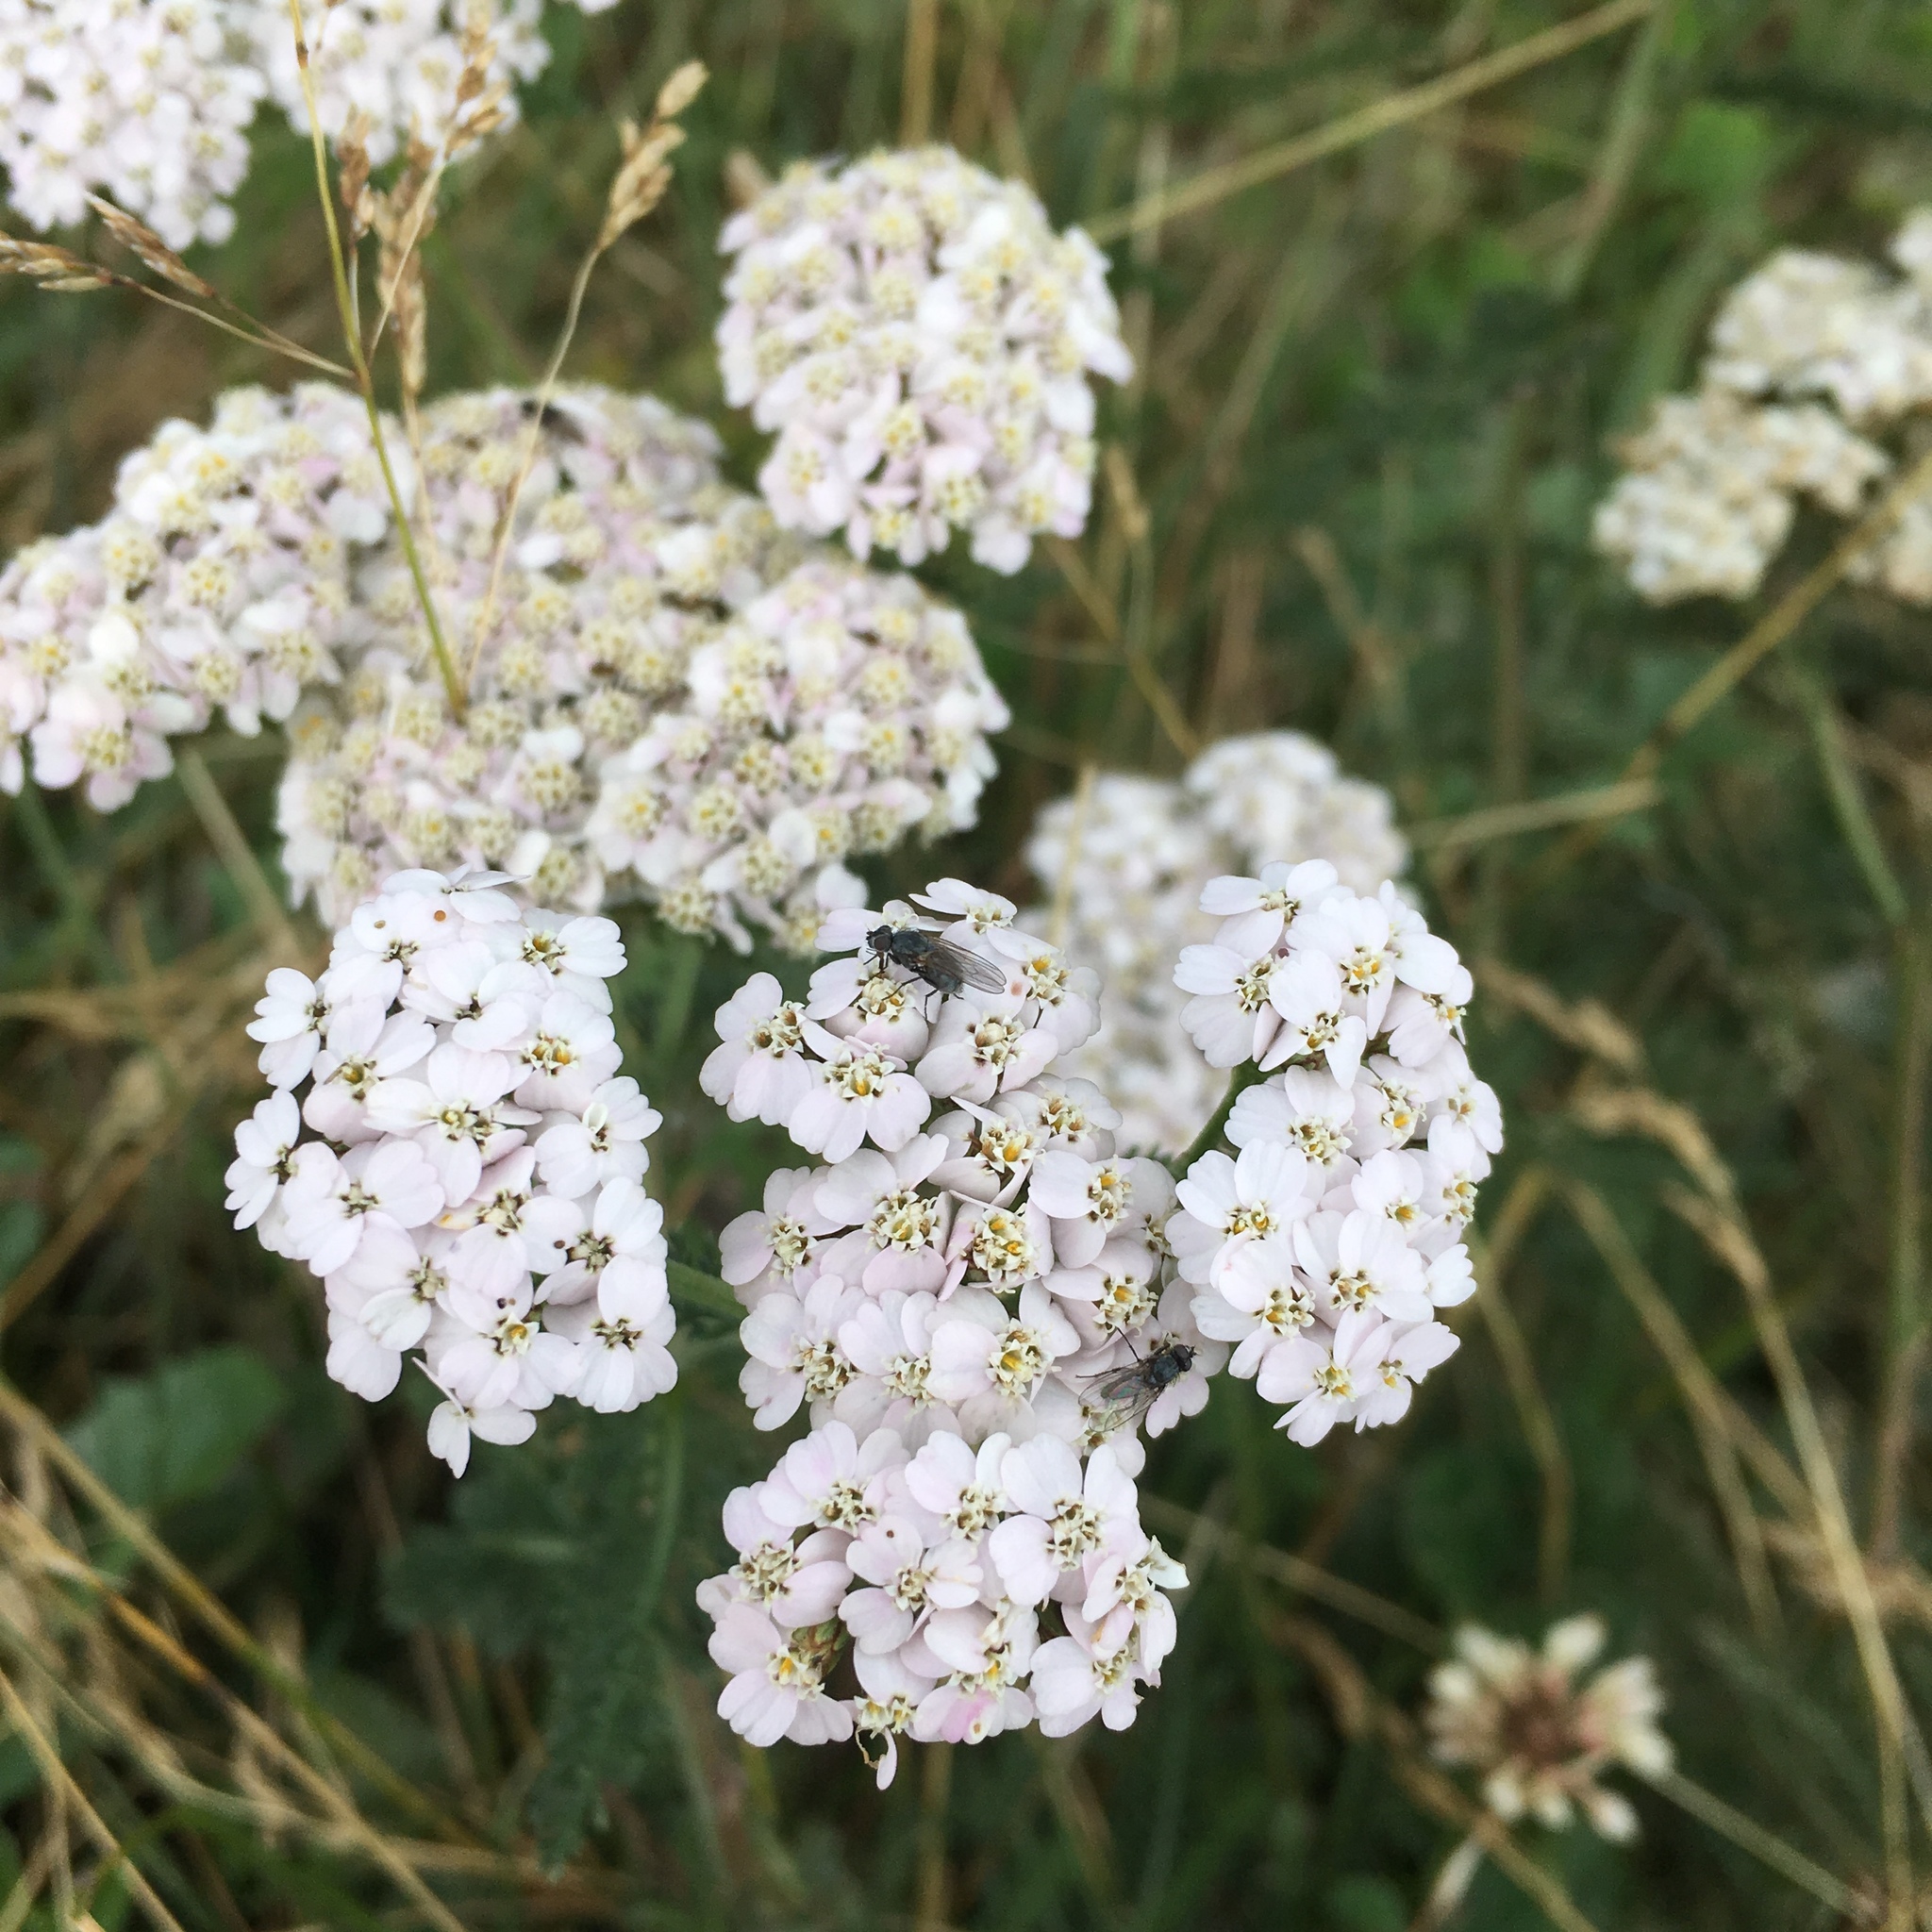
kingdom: Plantae
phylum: Tracheophyta
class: Magnoliopsida
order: Asterales
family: Asteraceae
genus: Achillea
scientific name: Achillea millefolium
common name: Yarrow
